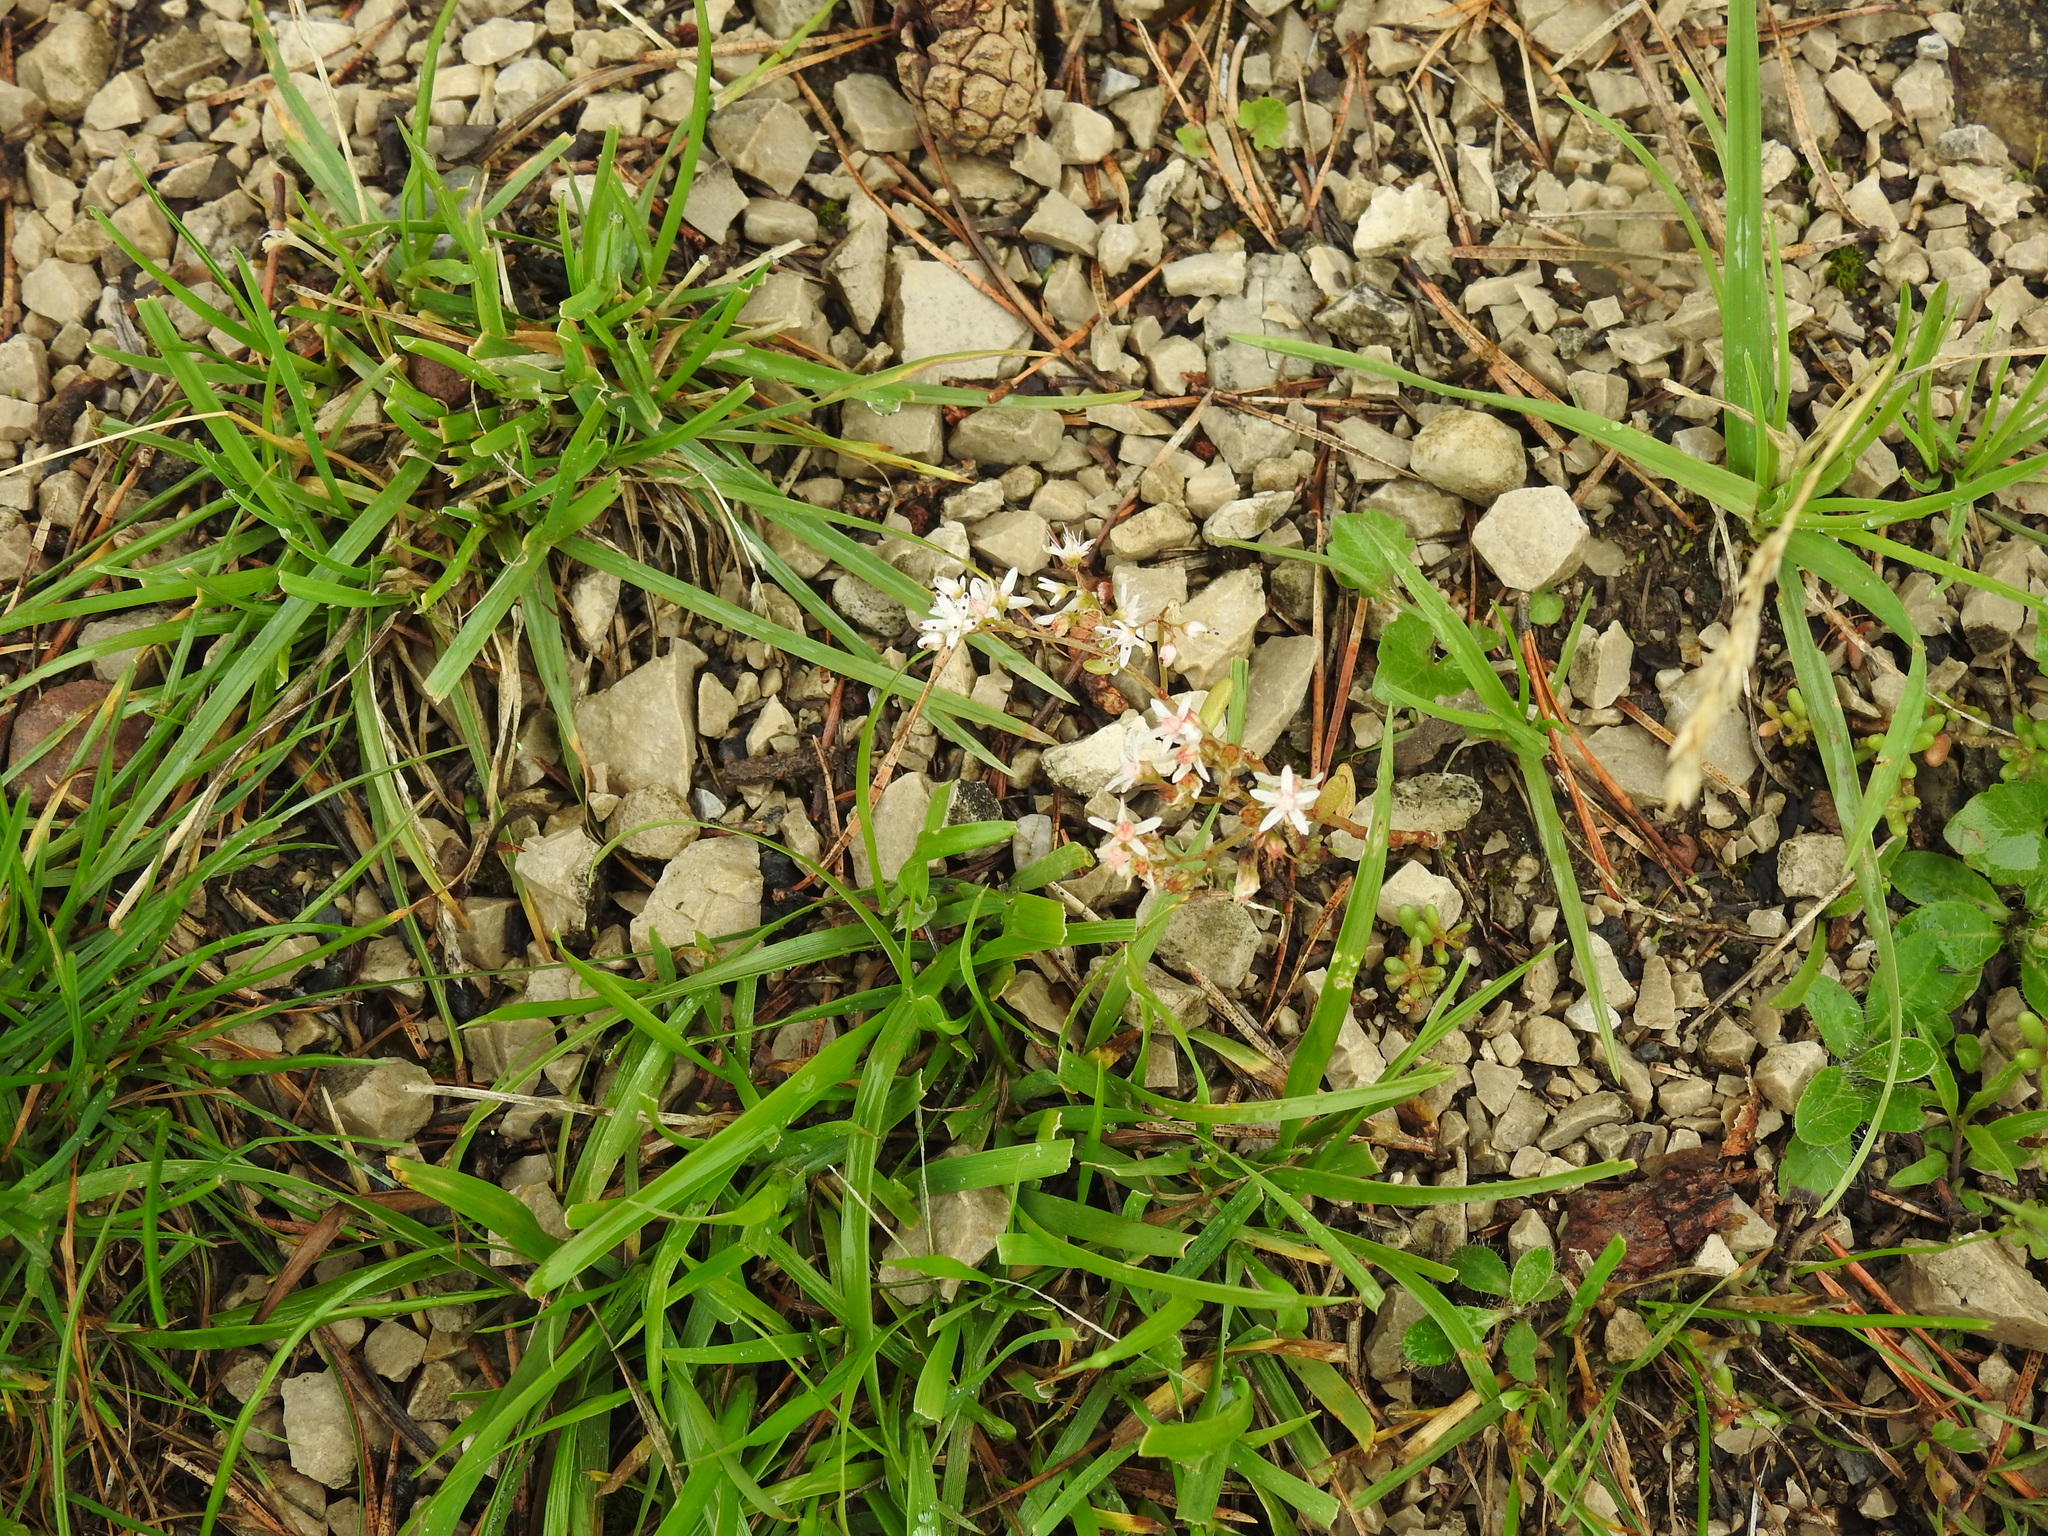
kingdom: Plantae
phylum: Tracheophyta
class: Magnoliopsida
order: Saxifragales
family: Crassulaceae
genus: Sedum
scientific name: Sedum album
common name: White stonecrop
